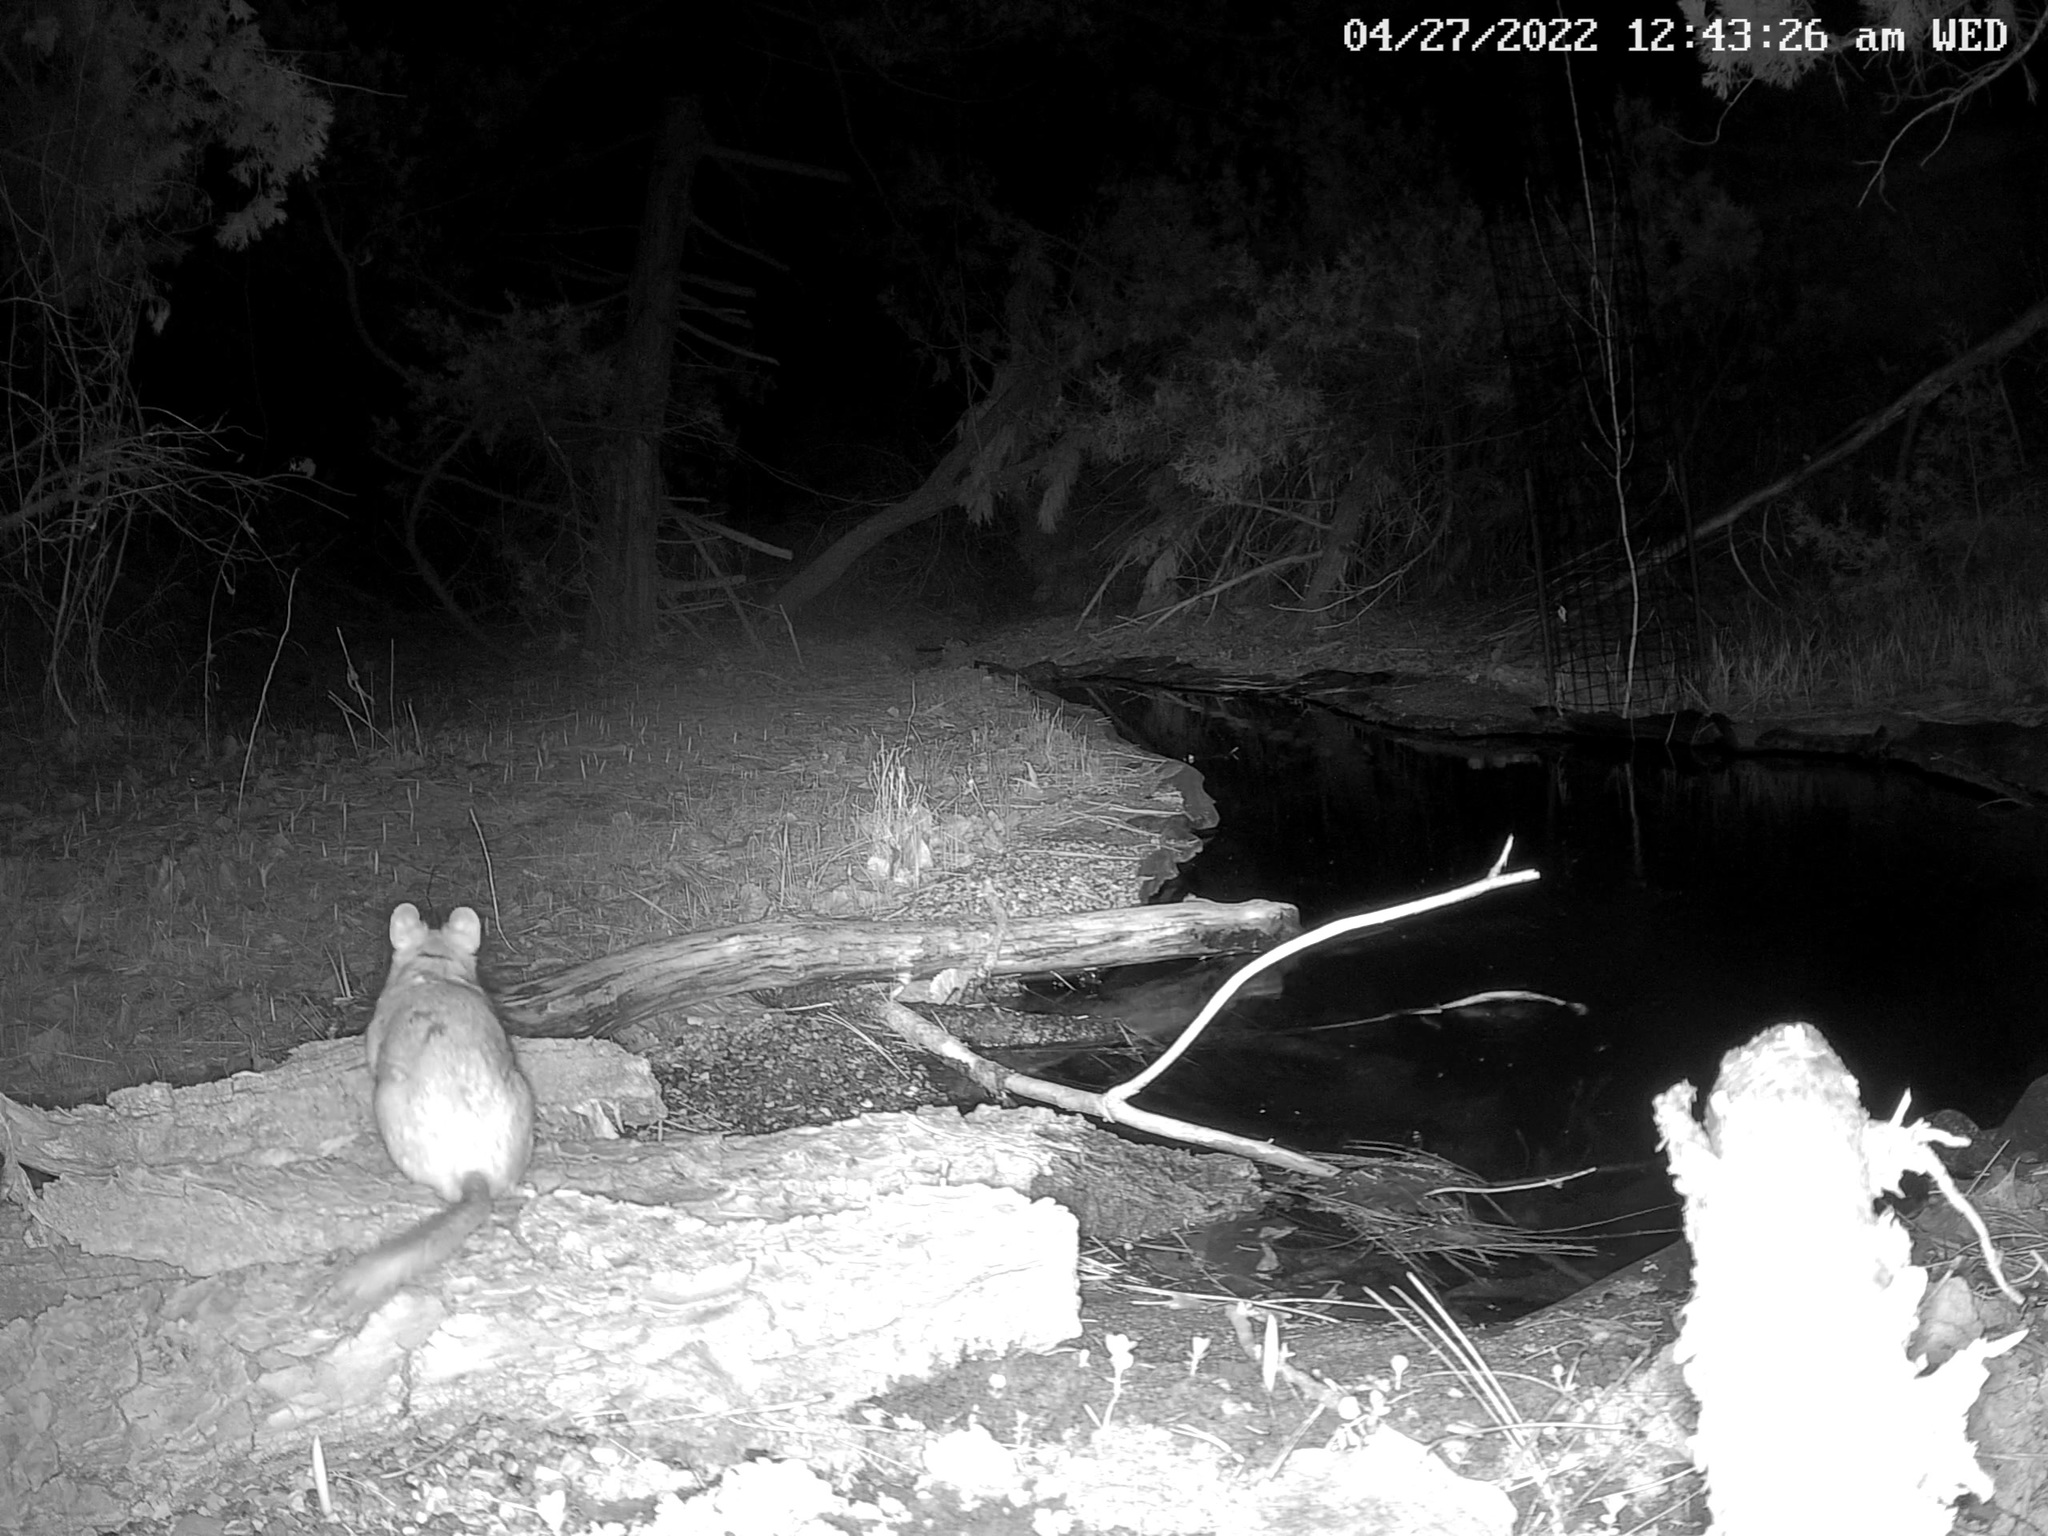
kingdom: Animalia
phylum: Chordata
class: Mammalia
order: Rodentia
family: Cricetidae
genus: Neotoma
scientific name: Neotoma cinerea
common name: Bushy-tailed woodrat
